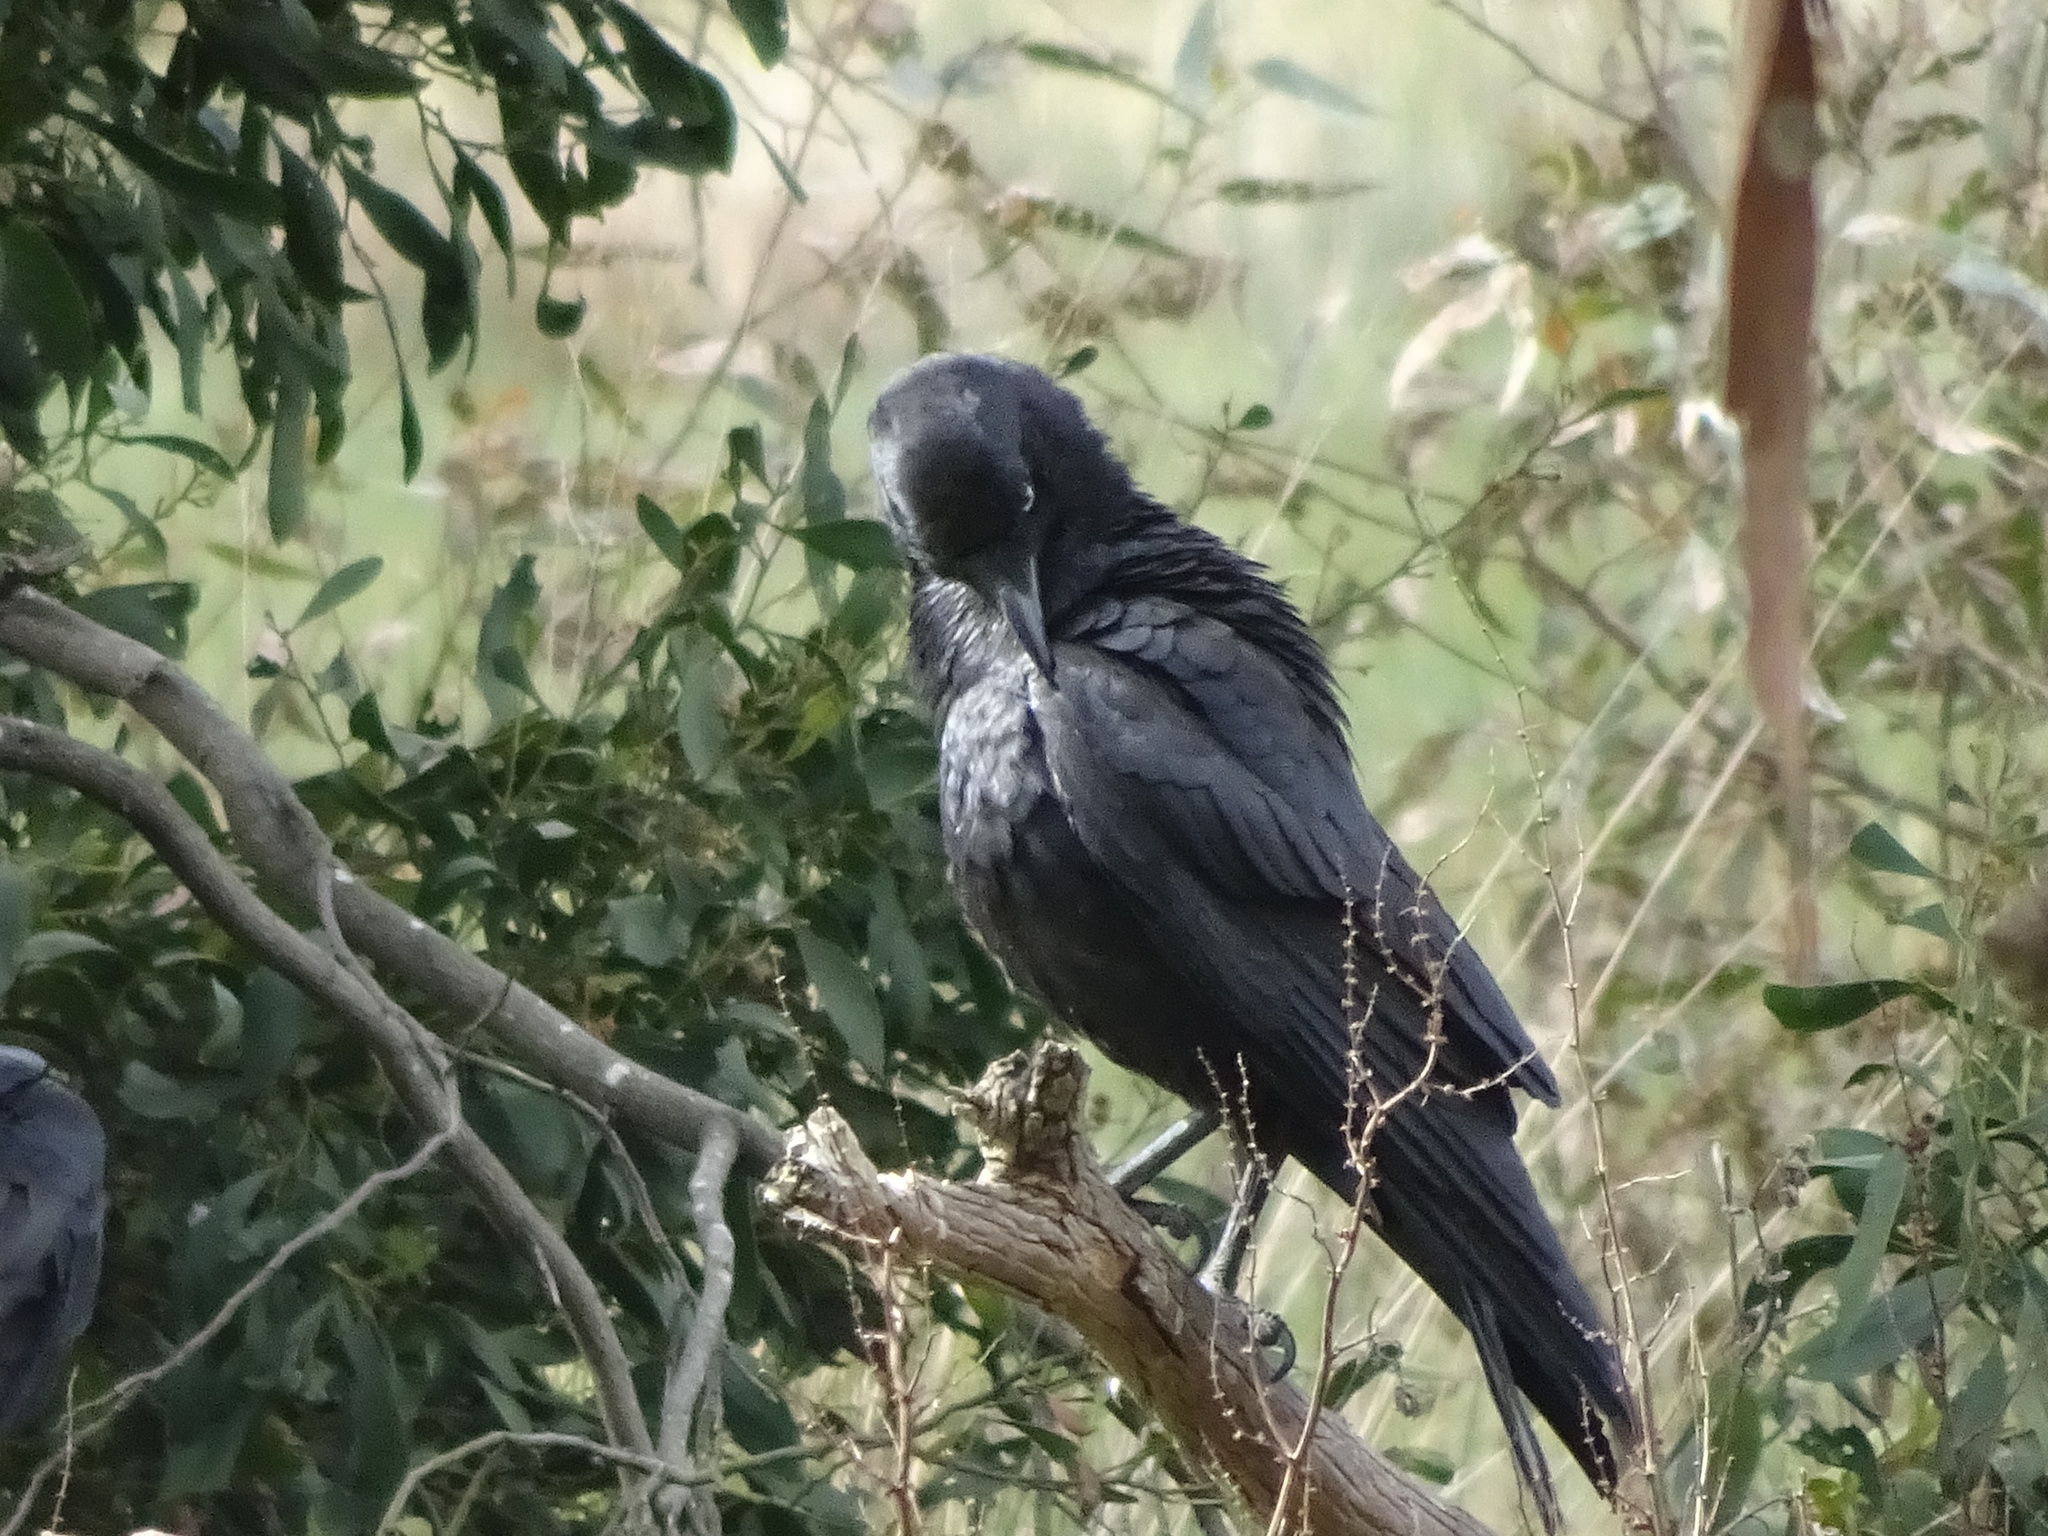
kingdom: Animalia
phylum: Chordata
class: Aves
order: Passeriformes
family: Corvidae
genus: Corvus
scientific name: Corvus mellori
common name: Little raven
